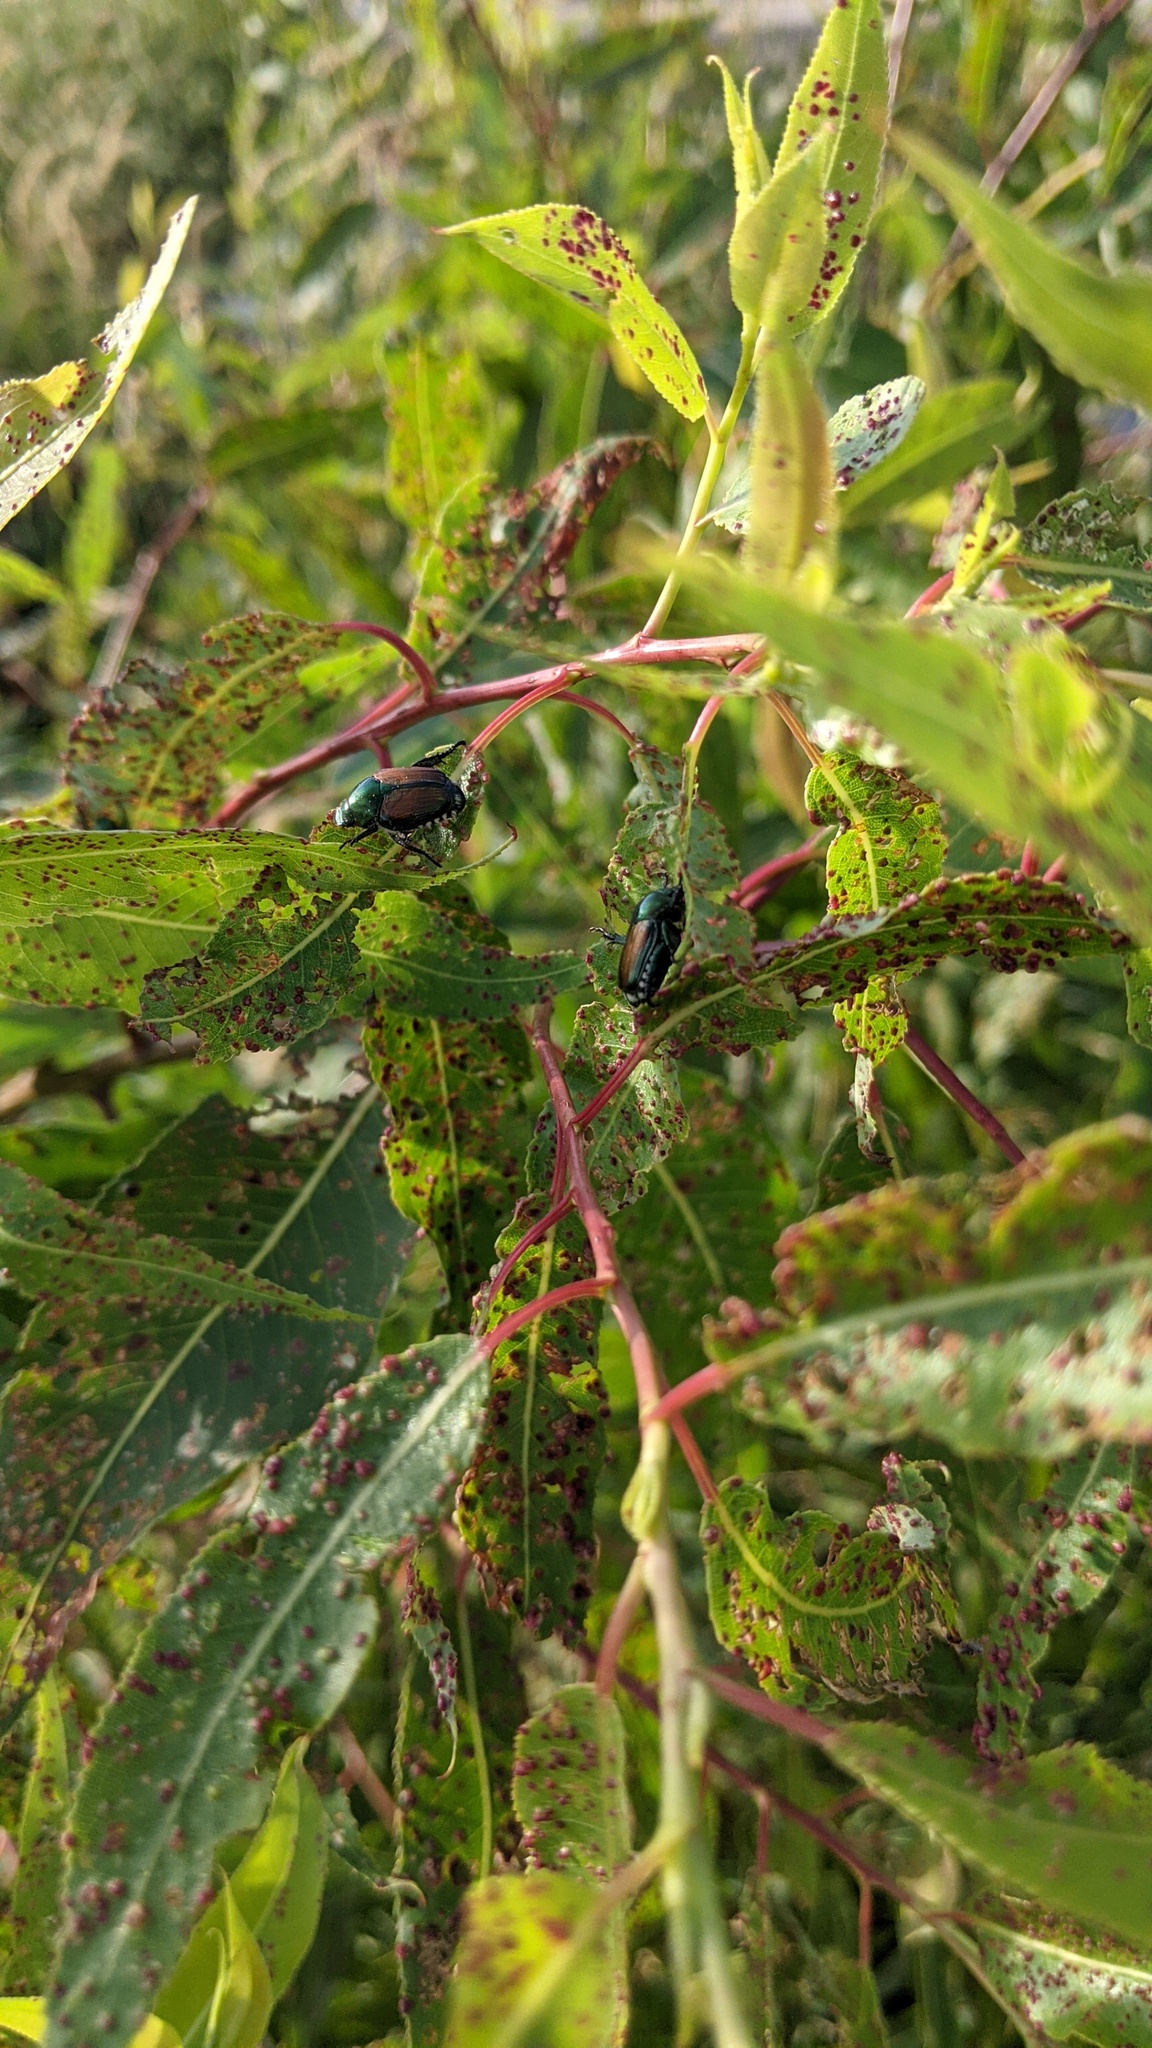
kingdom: Animalia
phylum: Arthropoda
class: Insecta
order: Coleoptera
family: Scarabaeidae
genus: Popillia
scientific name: Popillia japonica
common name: Japanese beetle
